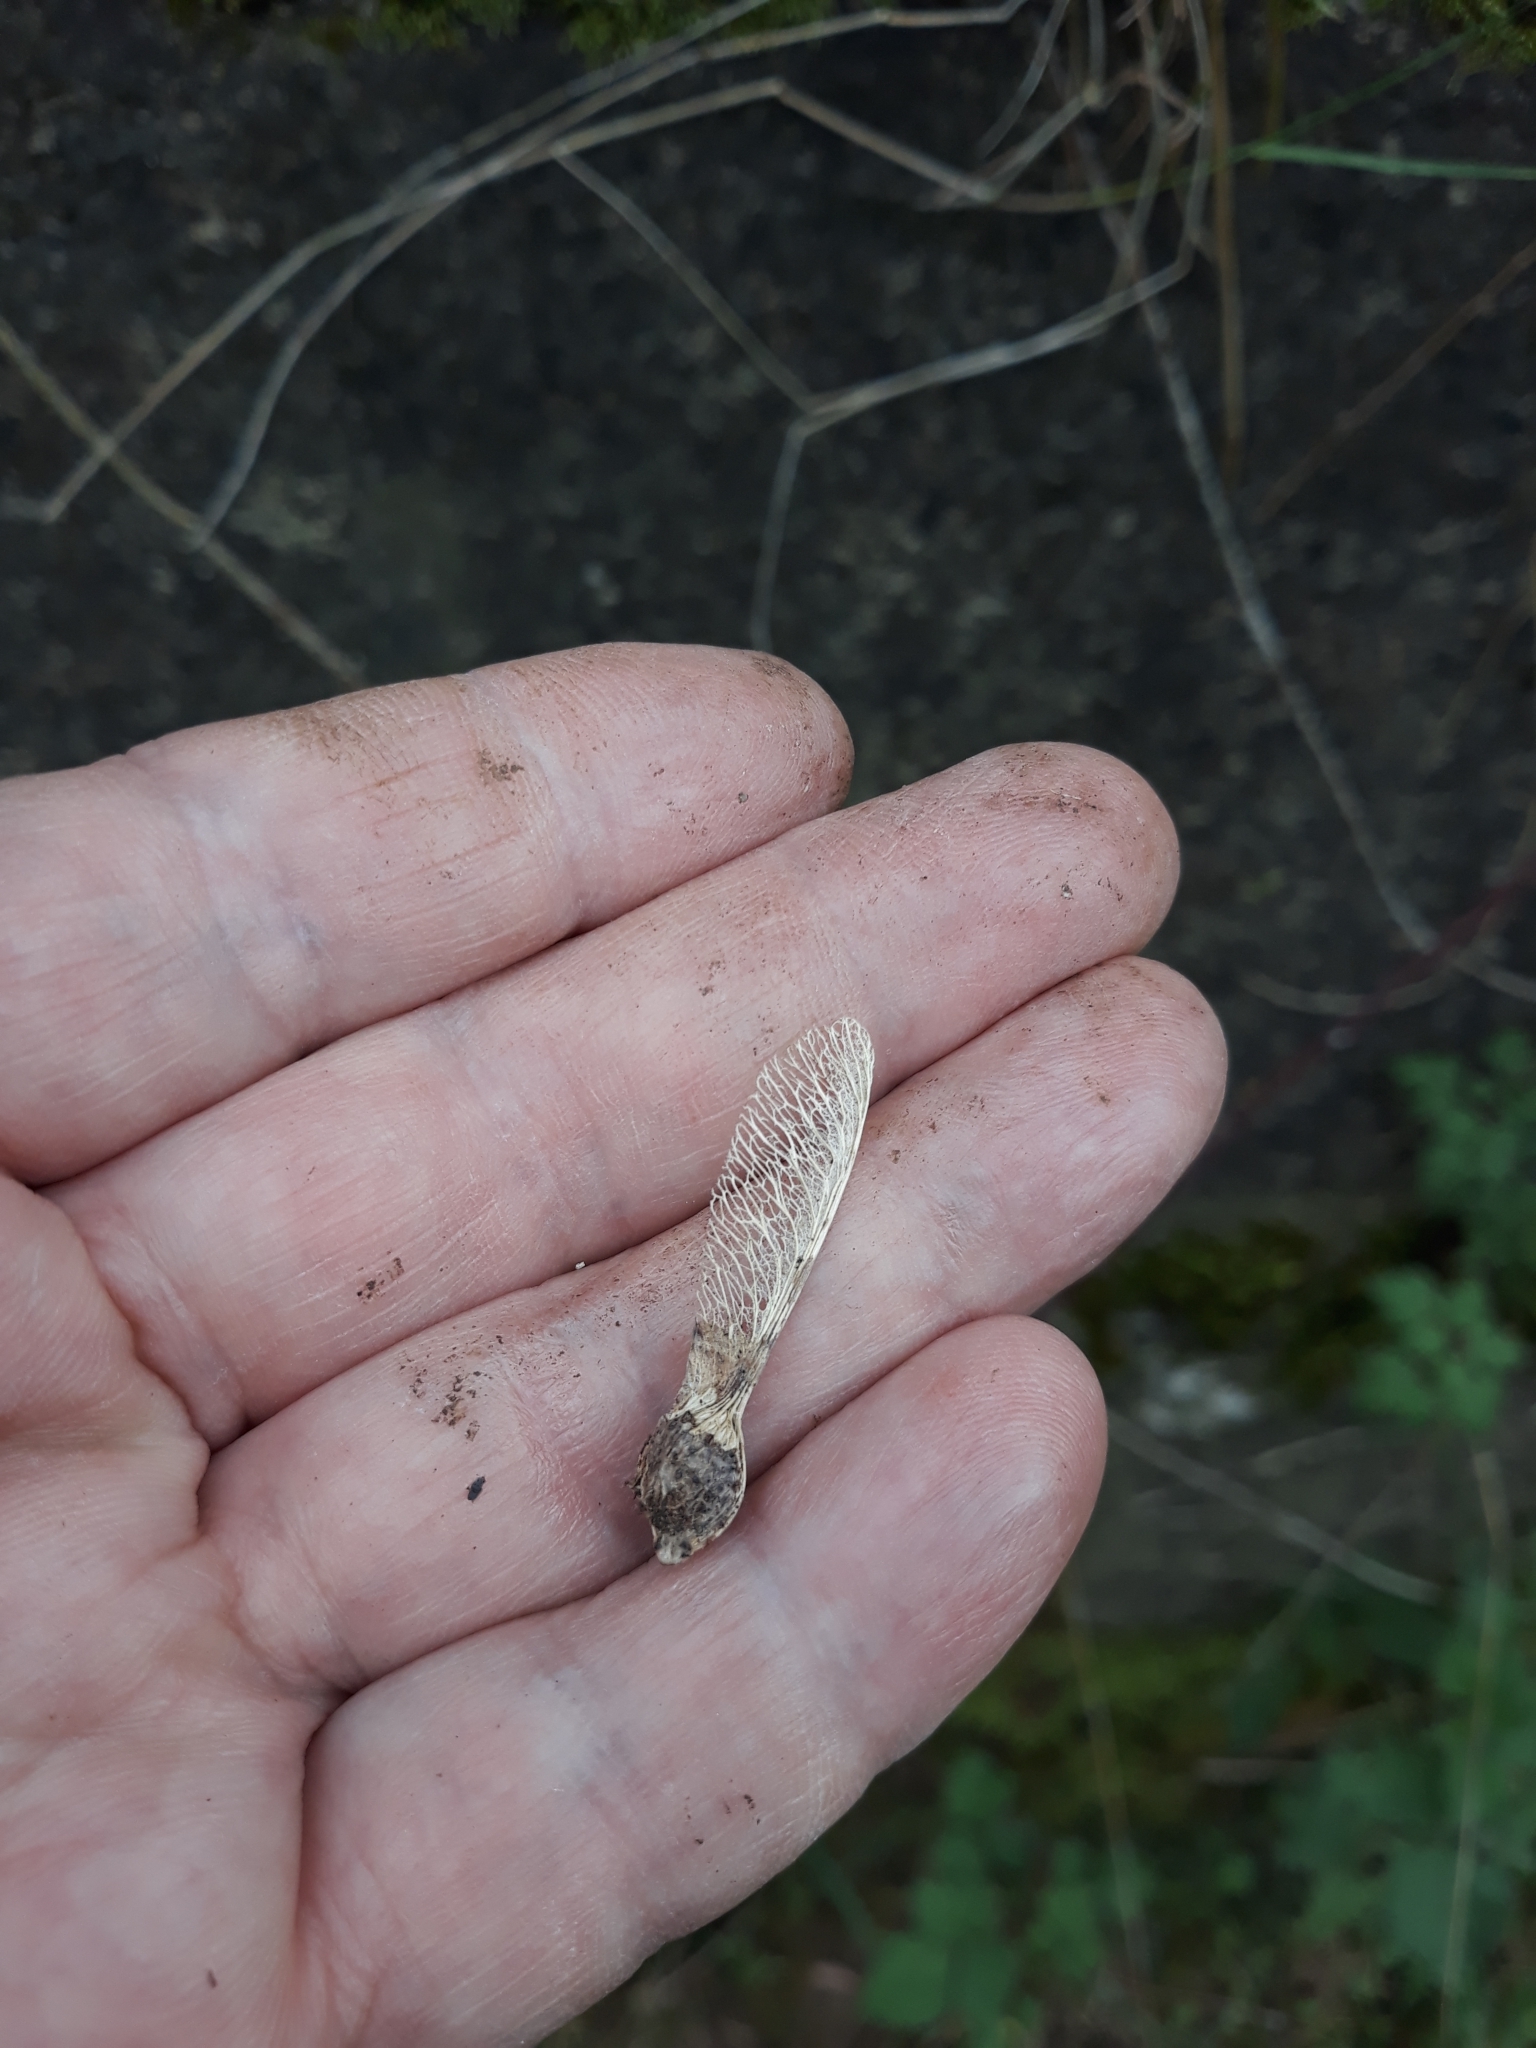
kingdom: Plantae
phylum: Tracheophyta
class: Magnoliopsida
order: Sapindales
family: Sapindaceae
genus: Acer
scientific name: Acer pseudoplatanus
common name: Sycamore
